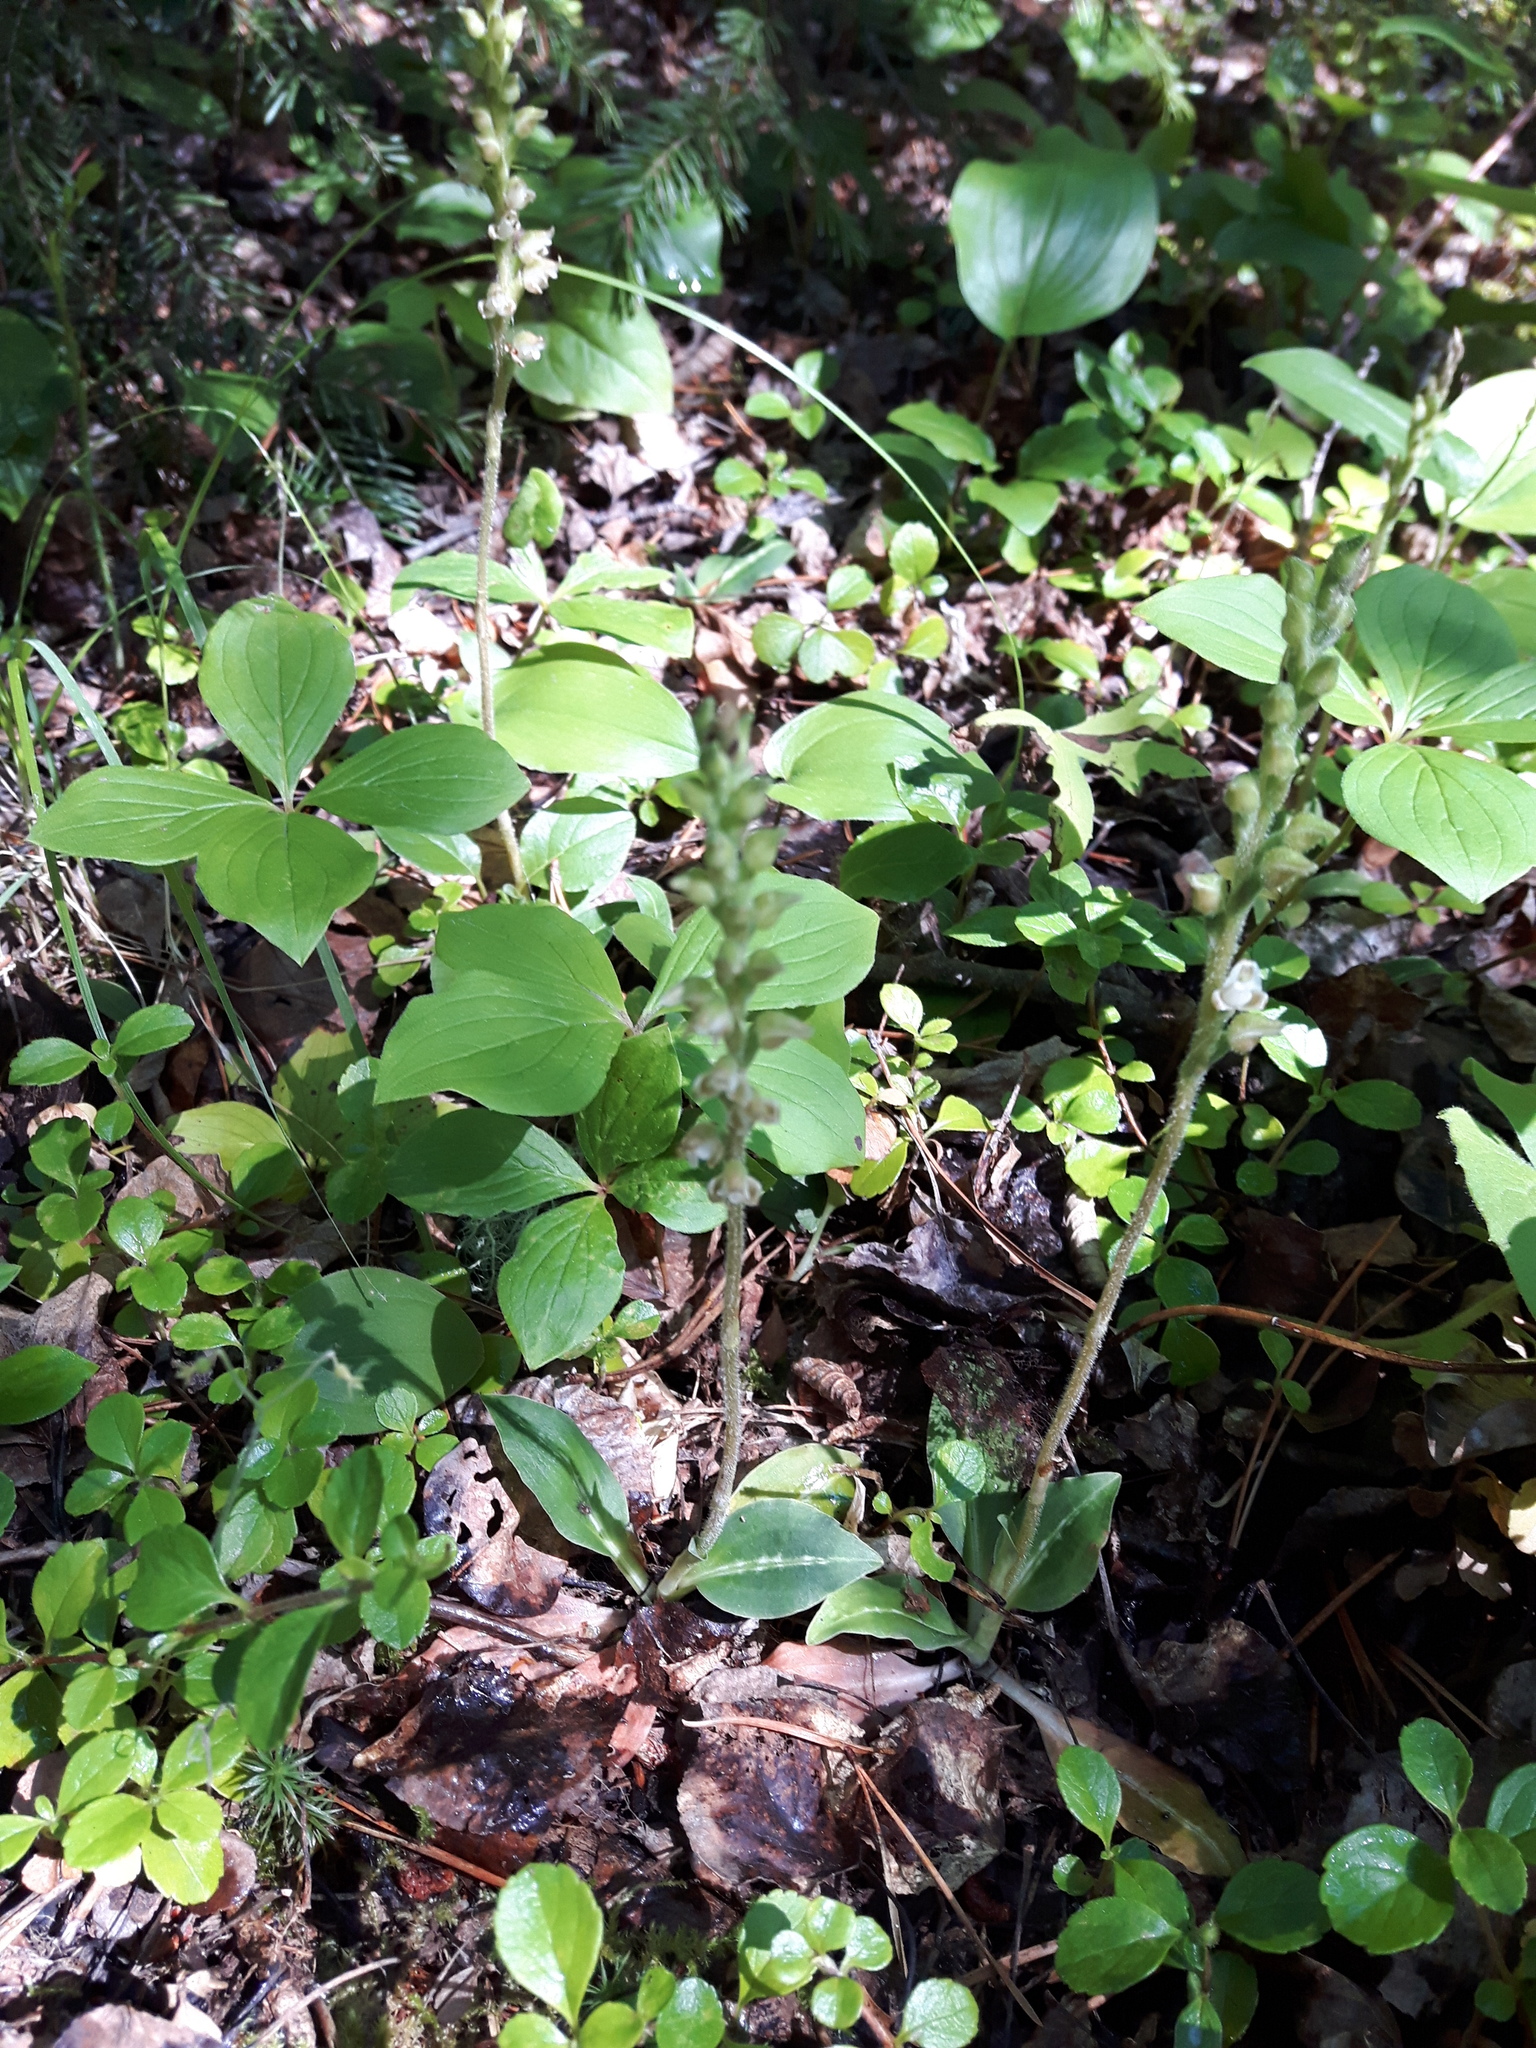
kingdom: Plantae
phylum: Tracheophyta
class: Liliopsida
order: Asparagales
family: Orchidaceae
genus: Goodyera
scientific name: Goodyera oblongifolia
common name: Giant rattlesnake-plantain
